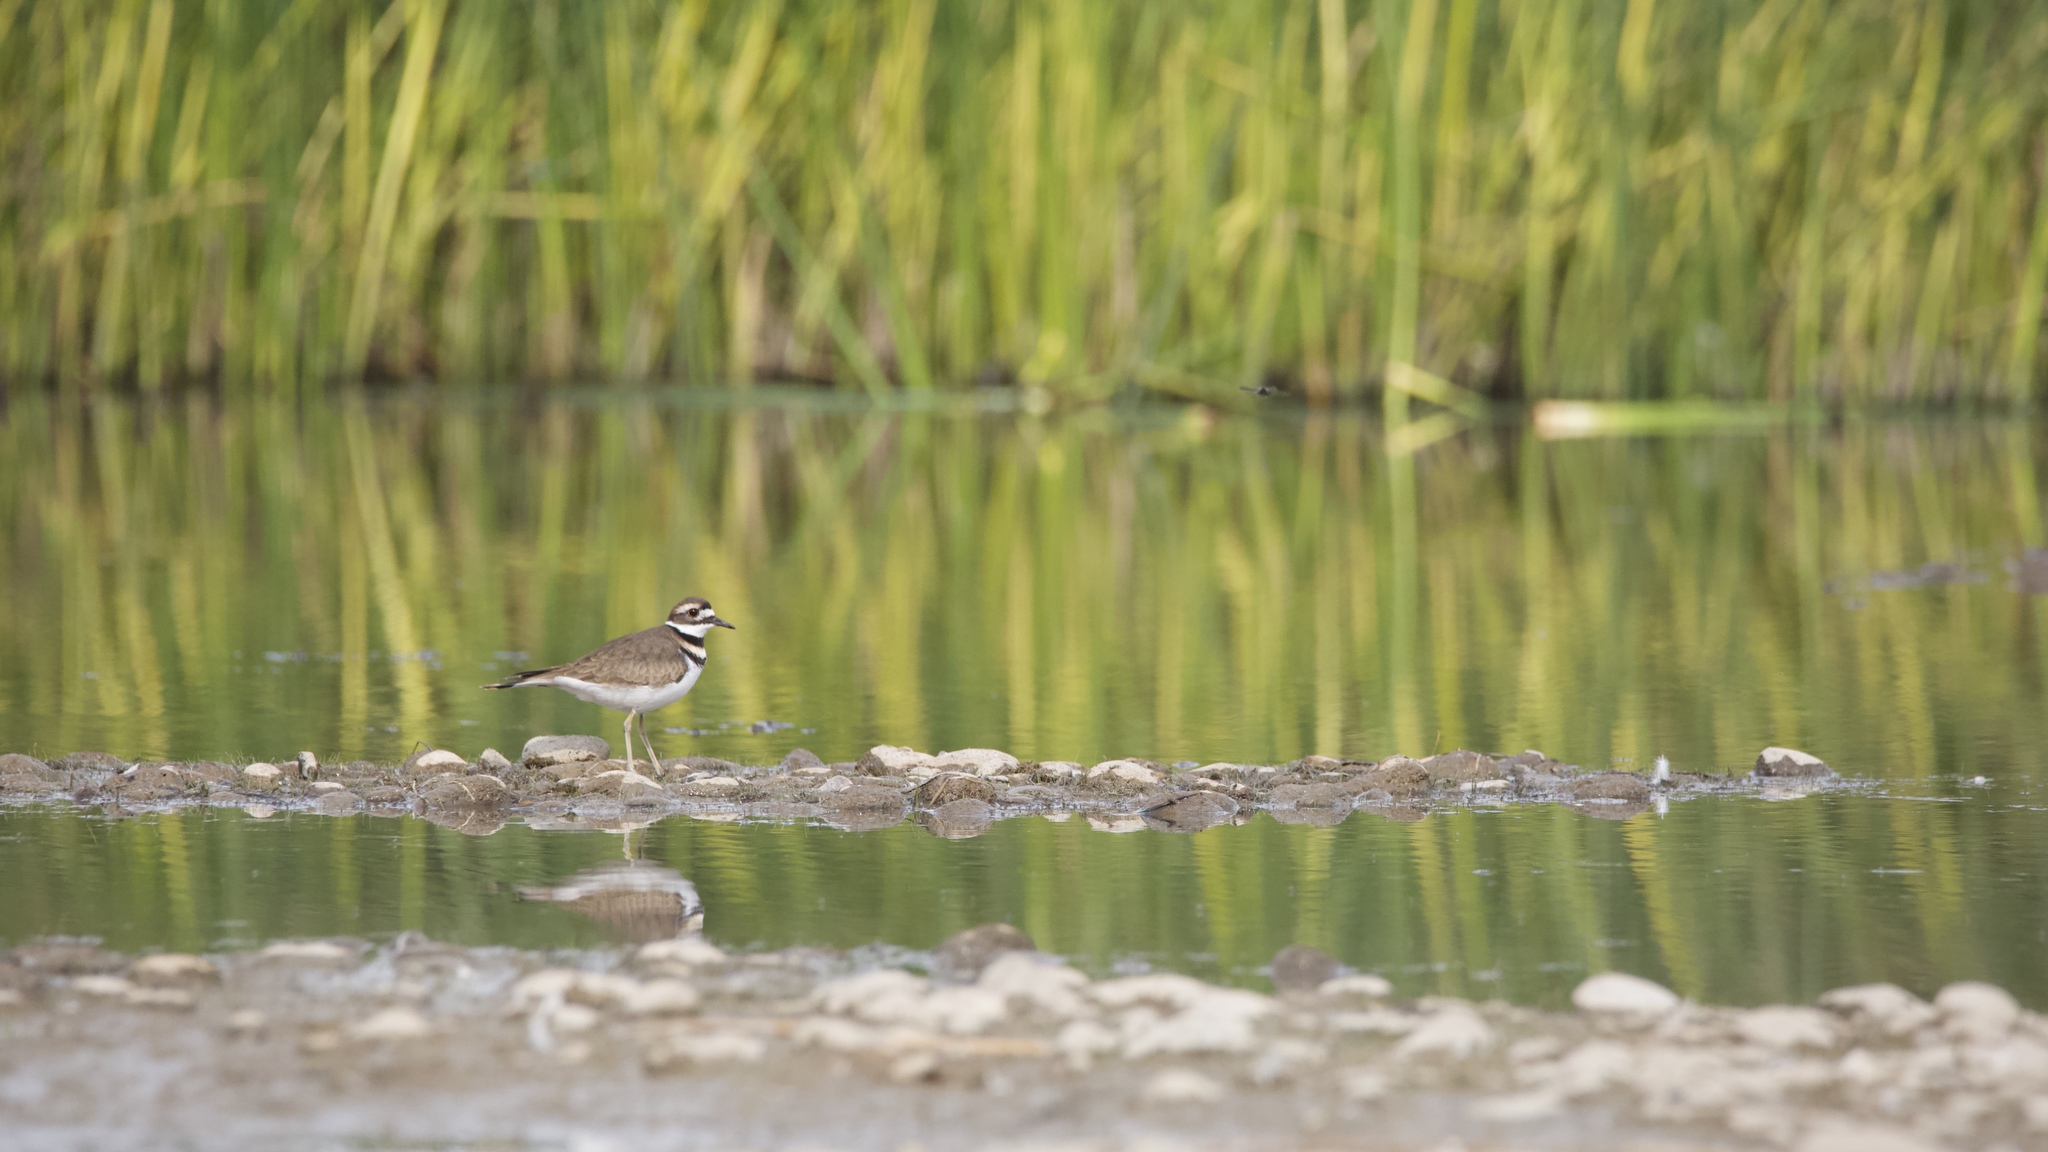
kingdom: Animalia
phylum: Chordata
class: Aves
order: Charadriiformes
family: Charadriidae
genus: Charadrius
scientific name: Charadrius vociferus
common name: Killdeer
